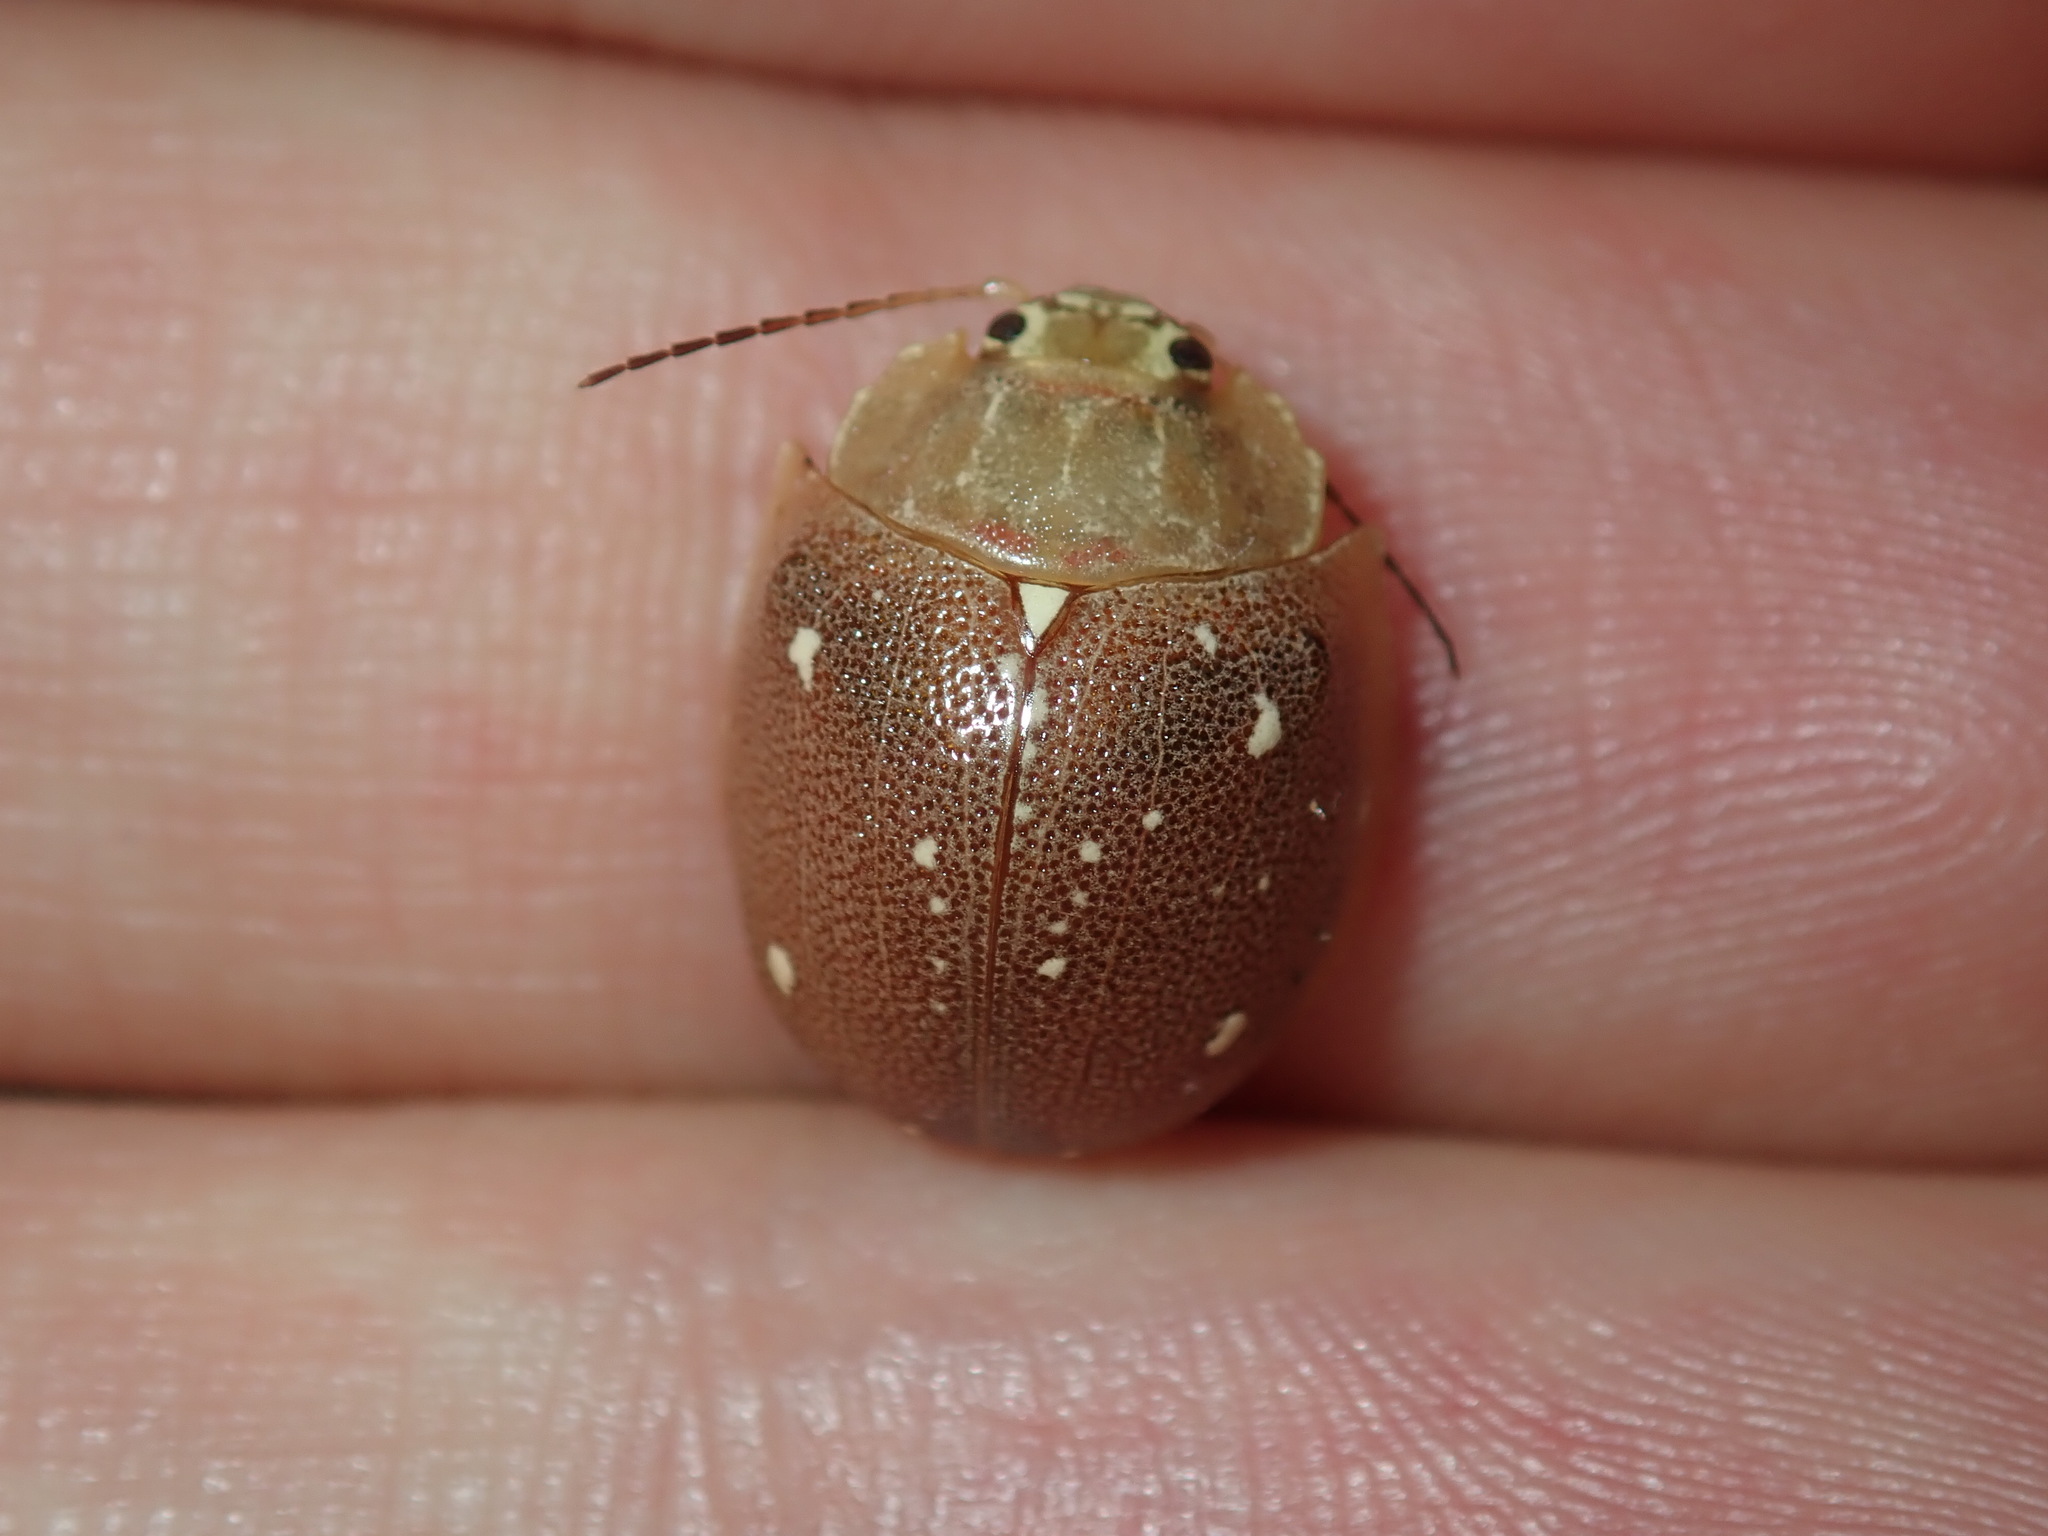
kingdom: Animalia
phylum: Arthropoda
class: Insecta
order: Coleoptera
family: Chrysomelidae
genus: Paropsis
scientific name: Paropsis
